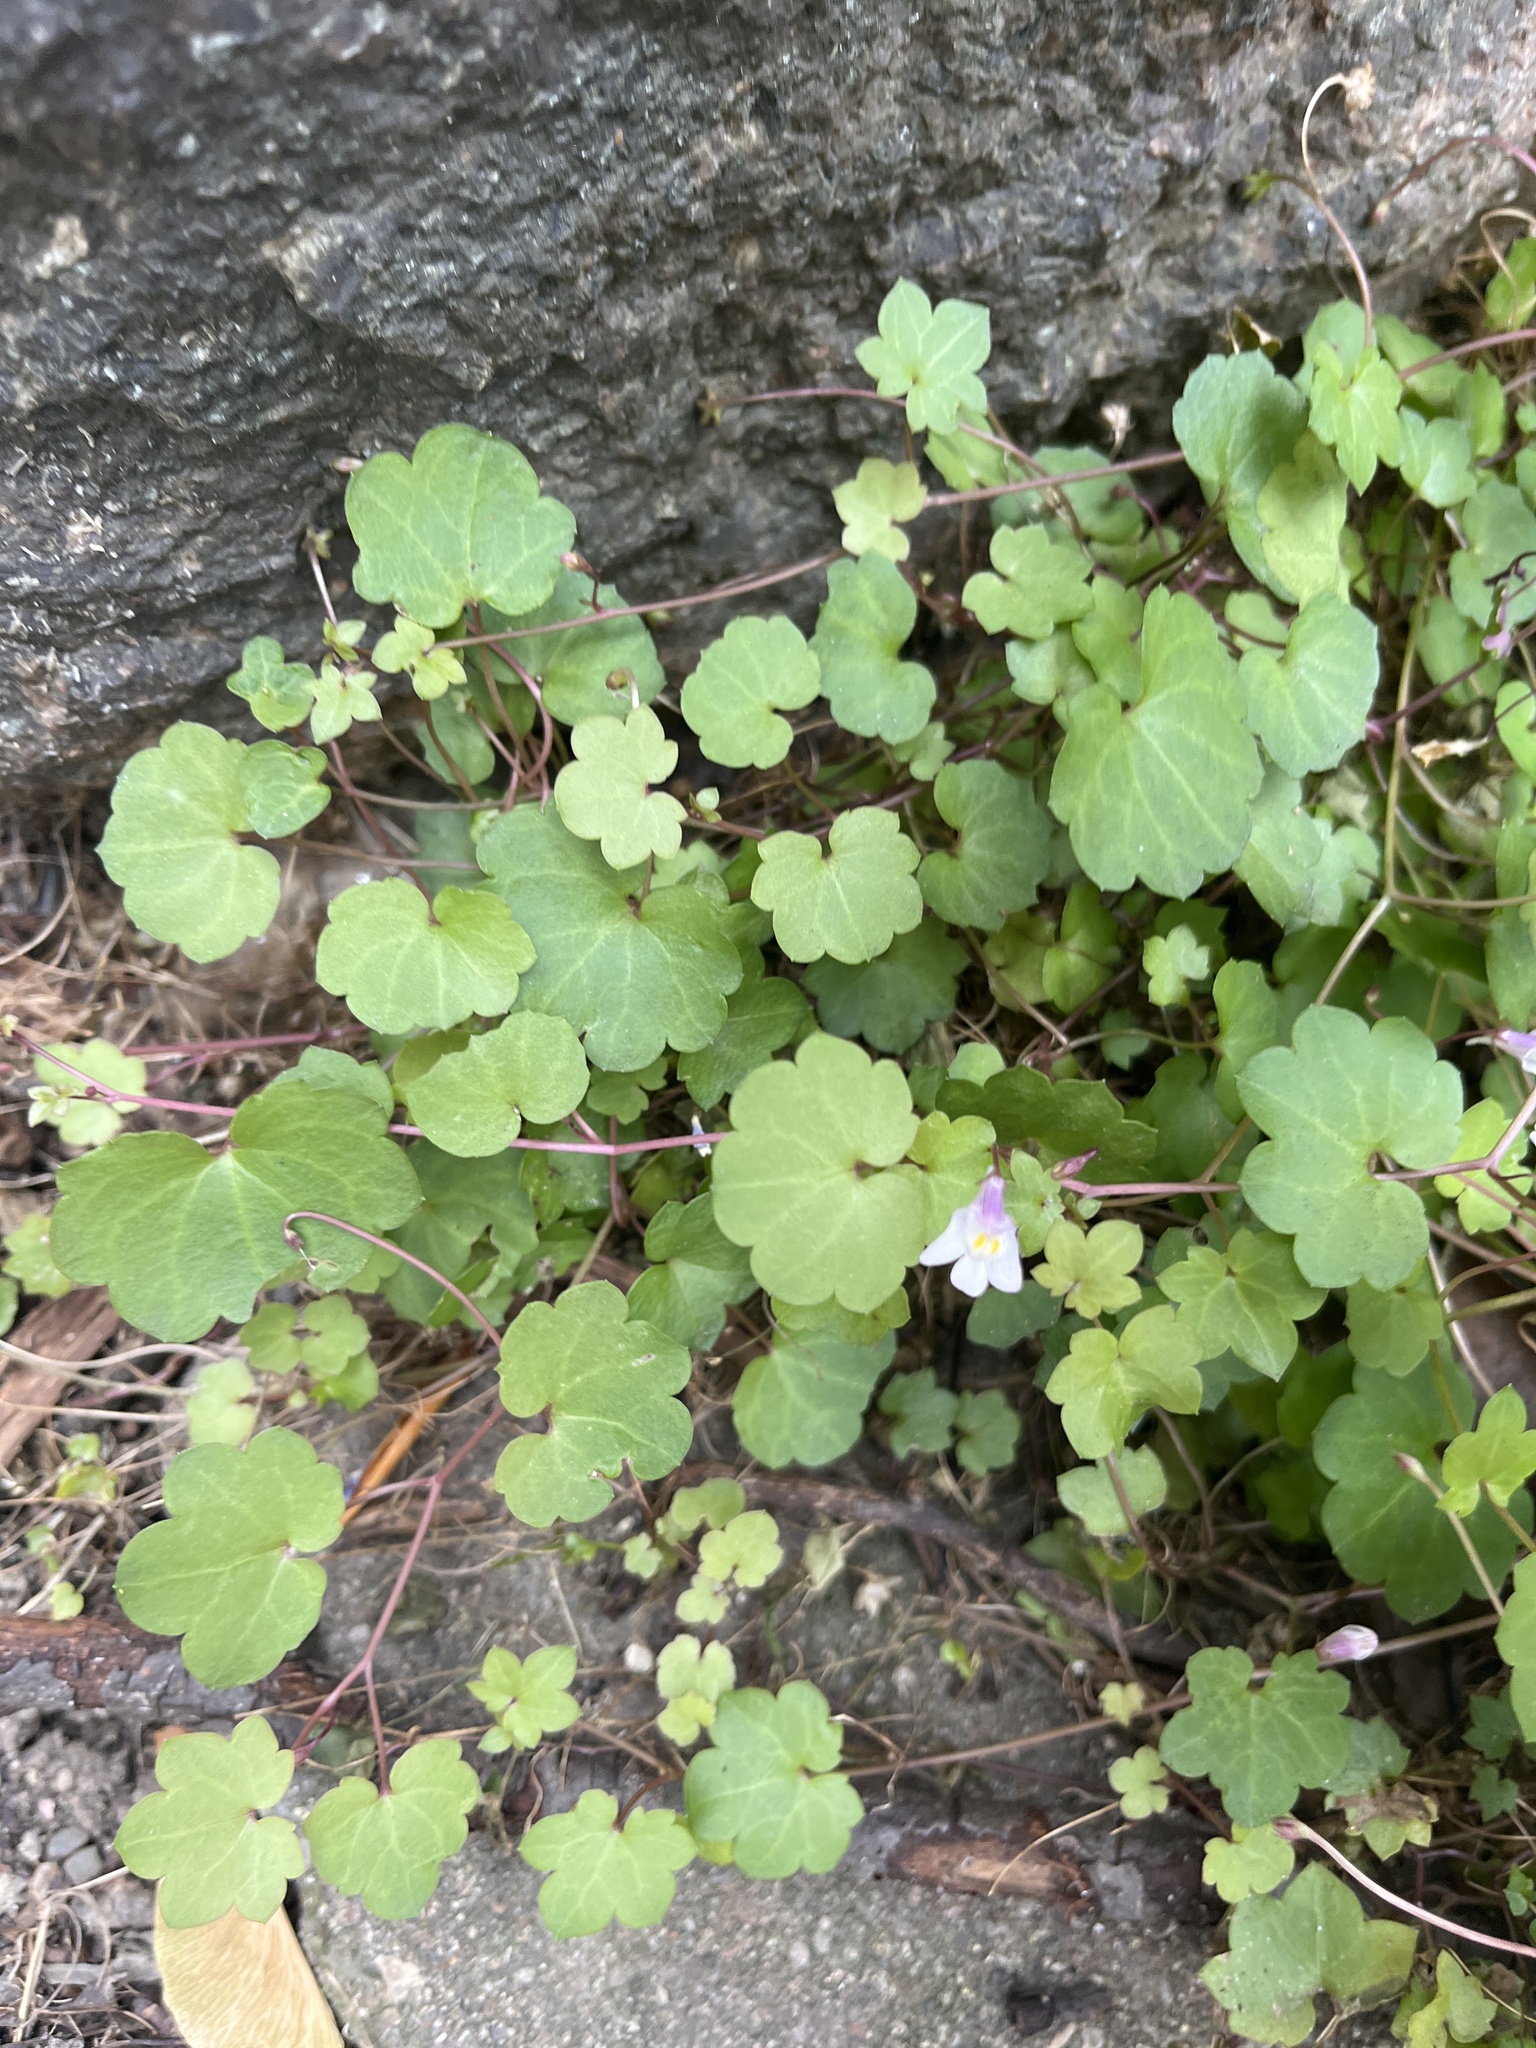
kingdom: Plantae
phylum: Tracheophyta
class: Magnoliopsida
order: Lamiales
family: Plantaginaceae
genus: Cymbalaria
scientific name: Cymbalaria muralis
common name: Ivy-leaved toadflax
